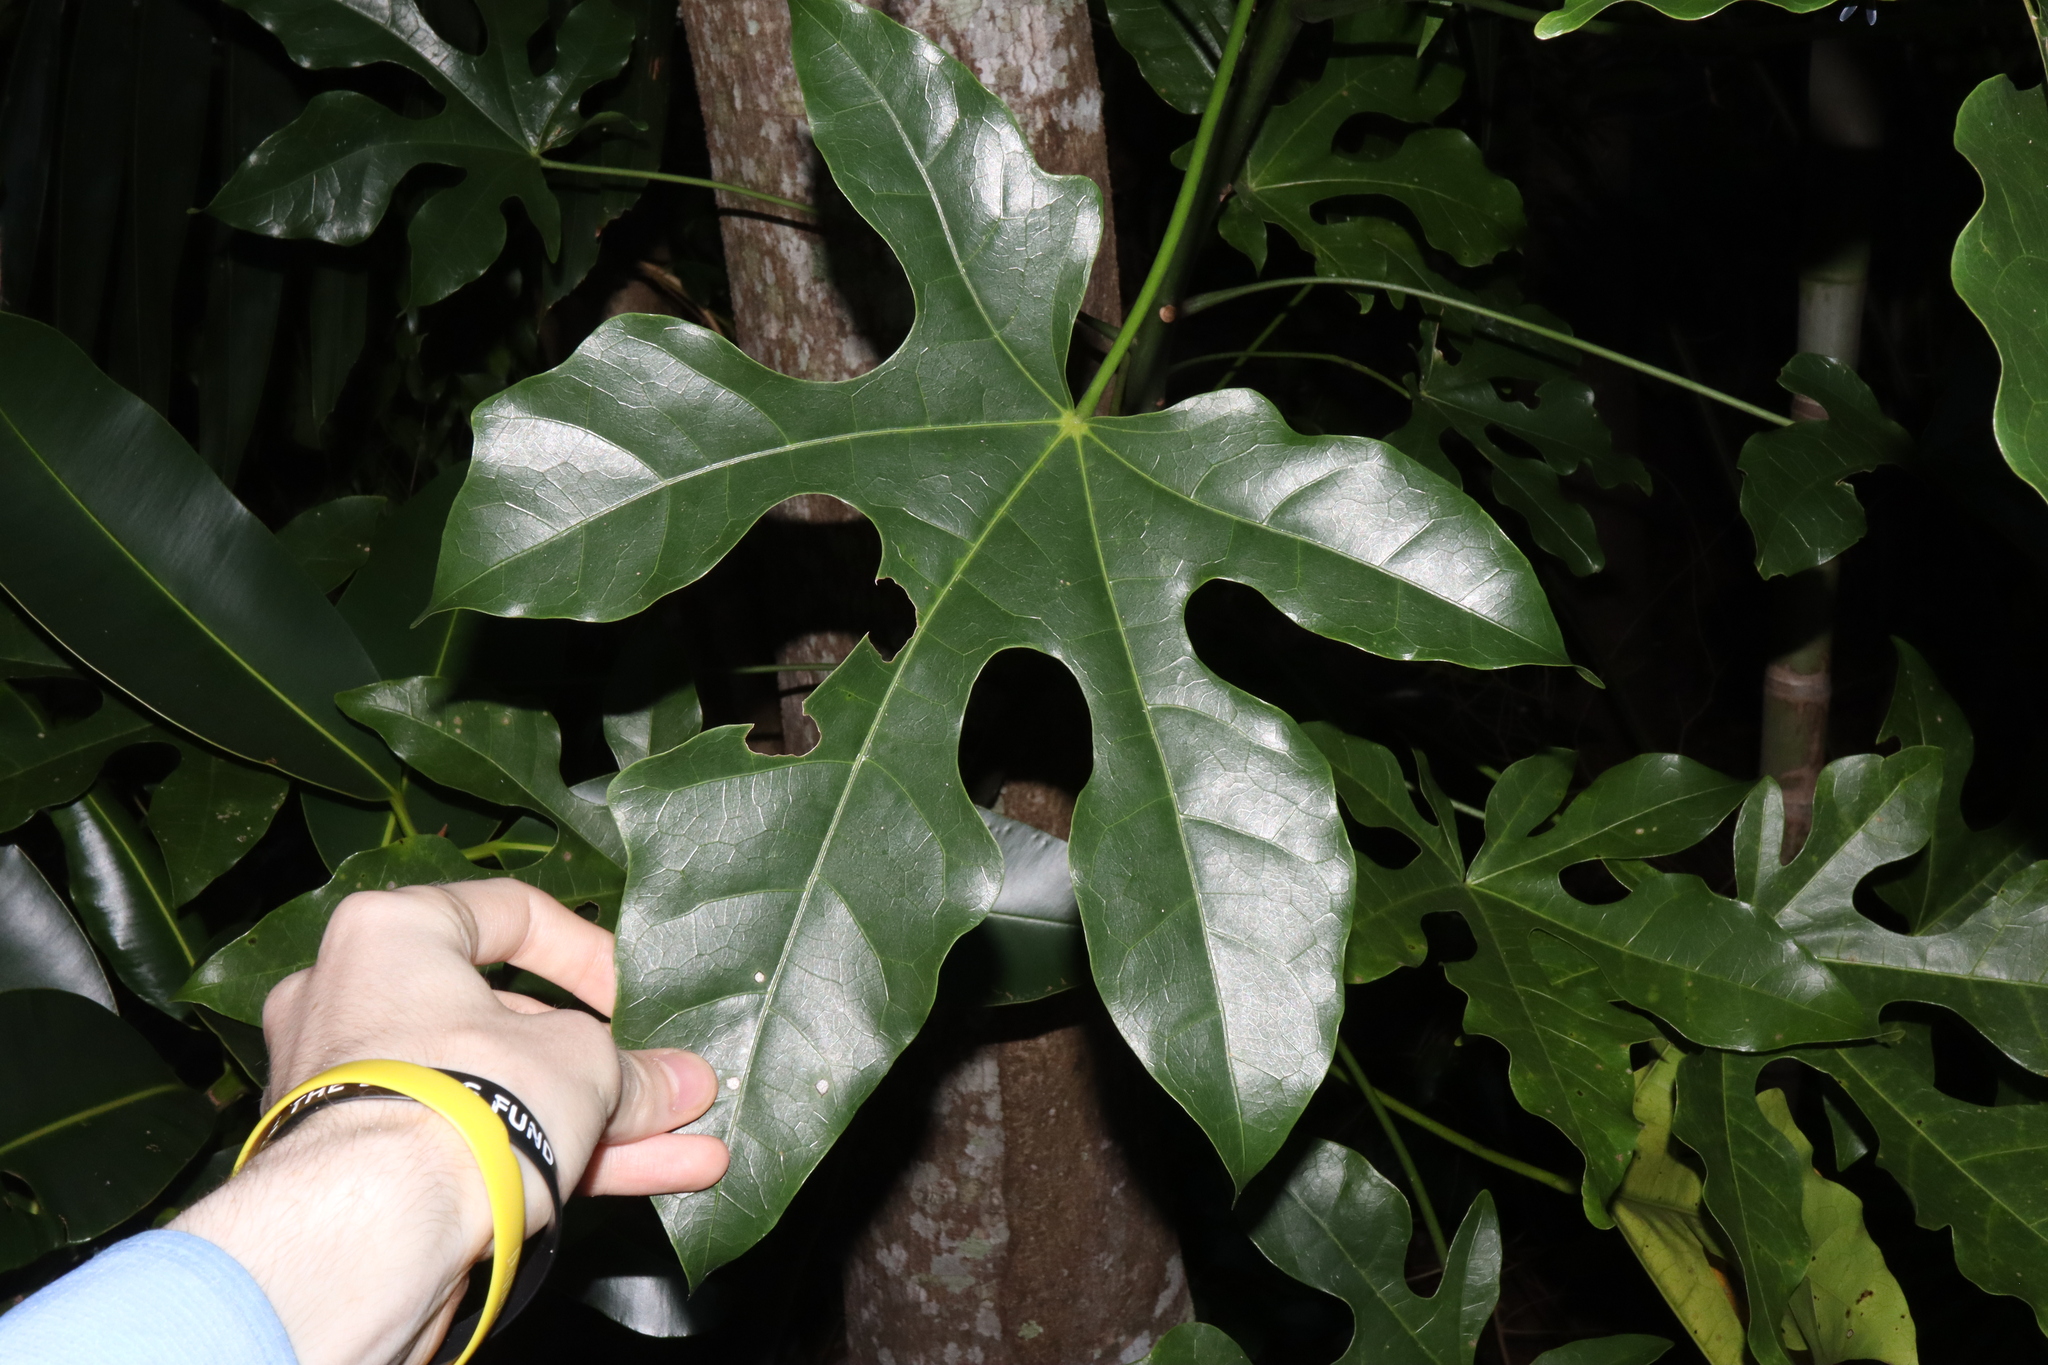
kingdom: Plantae
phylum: Tracheophyta
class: Magnoliopsida
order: Malvales
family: Malvaceae
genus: Brachychiton
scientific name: Brachychiton acerifolius
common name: Illawarra flame tree
